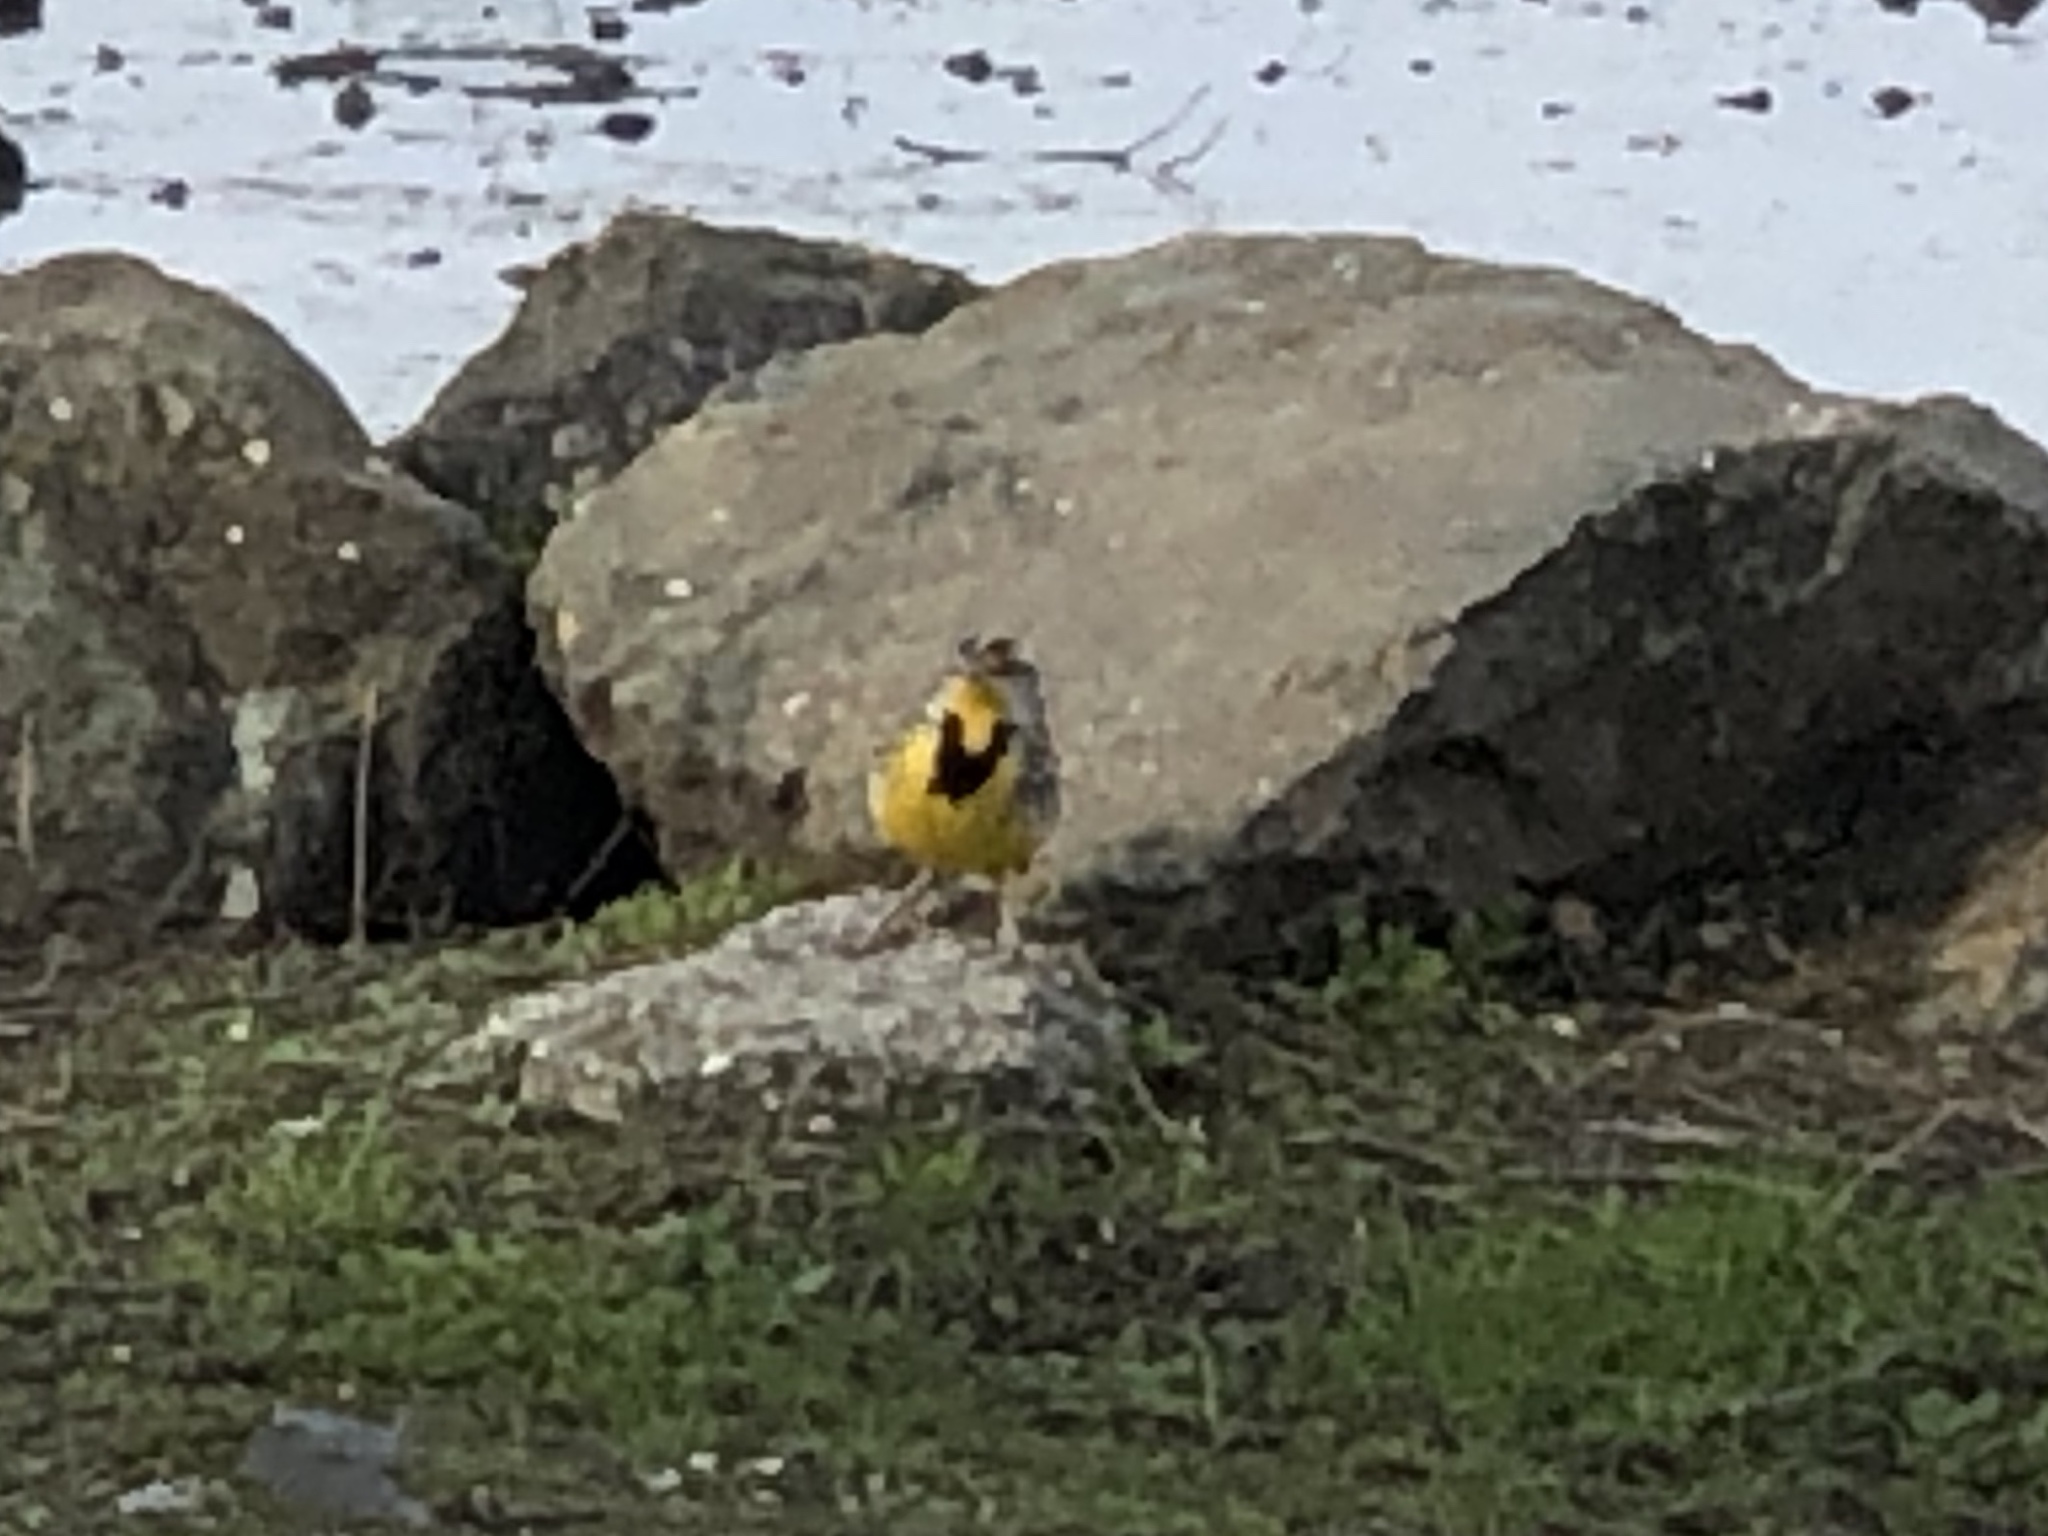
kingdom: Animalia
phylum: Chordata
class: Aves
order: Passeriformes
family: Icteridae
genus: Sturnella
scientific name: Sturnella neglecta
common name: Western meadowlark
